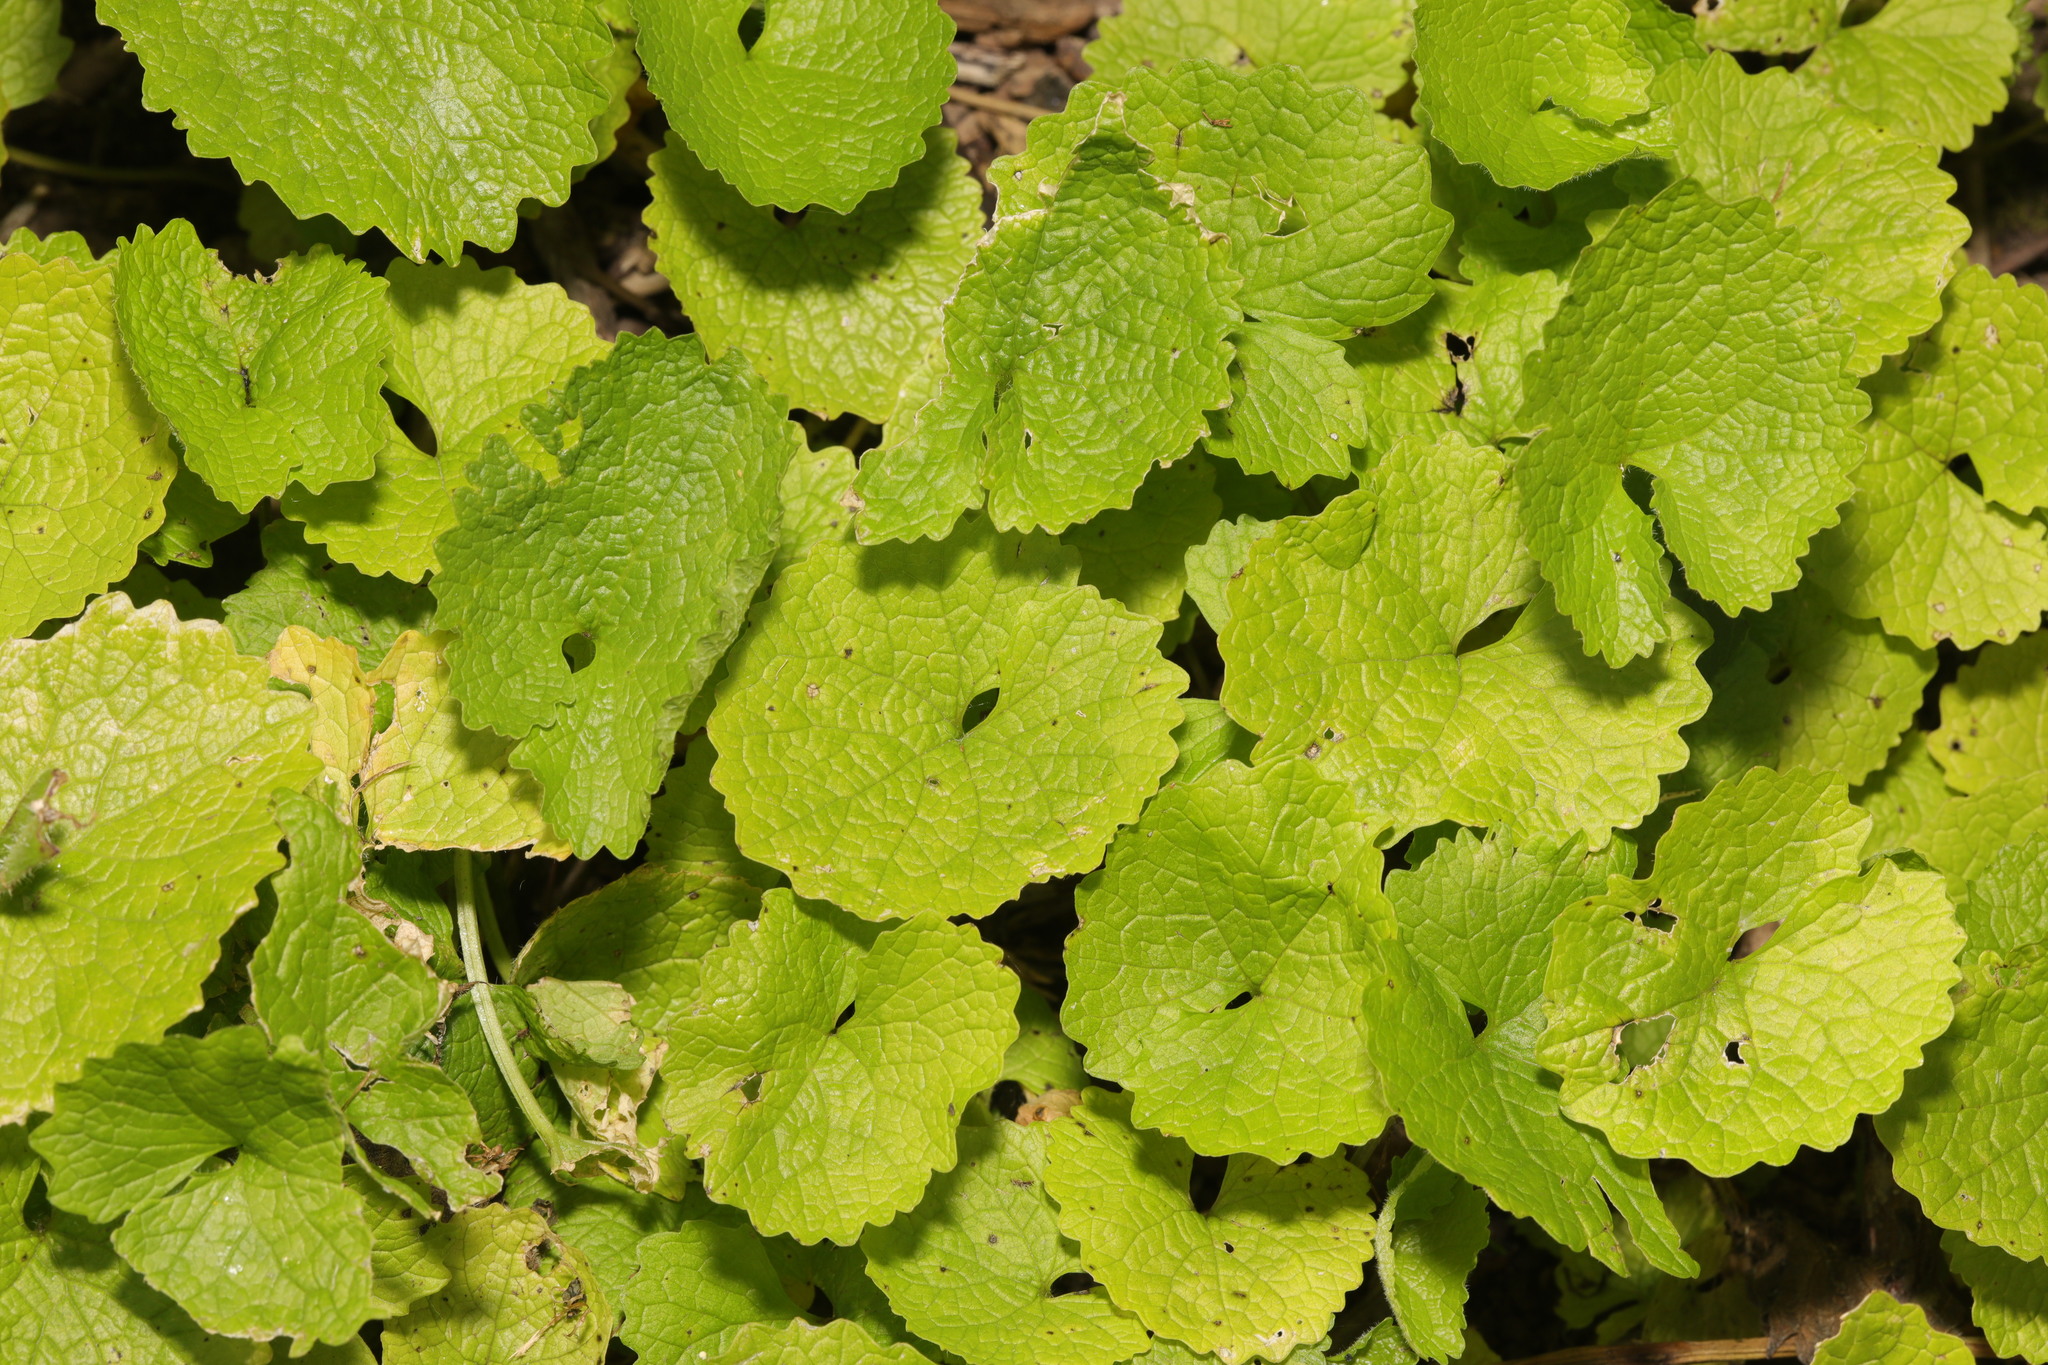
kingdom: Plantae
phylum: Tracheophyta
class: Magnoliopsida
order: Brassicales
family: Brassicaceae
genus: Alliaria
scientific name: Alliaria petiolata
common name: Garlic mustard
